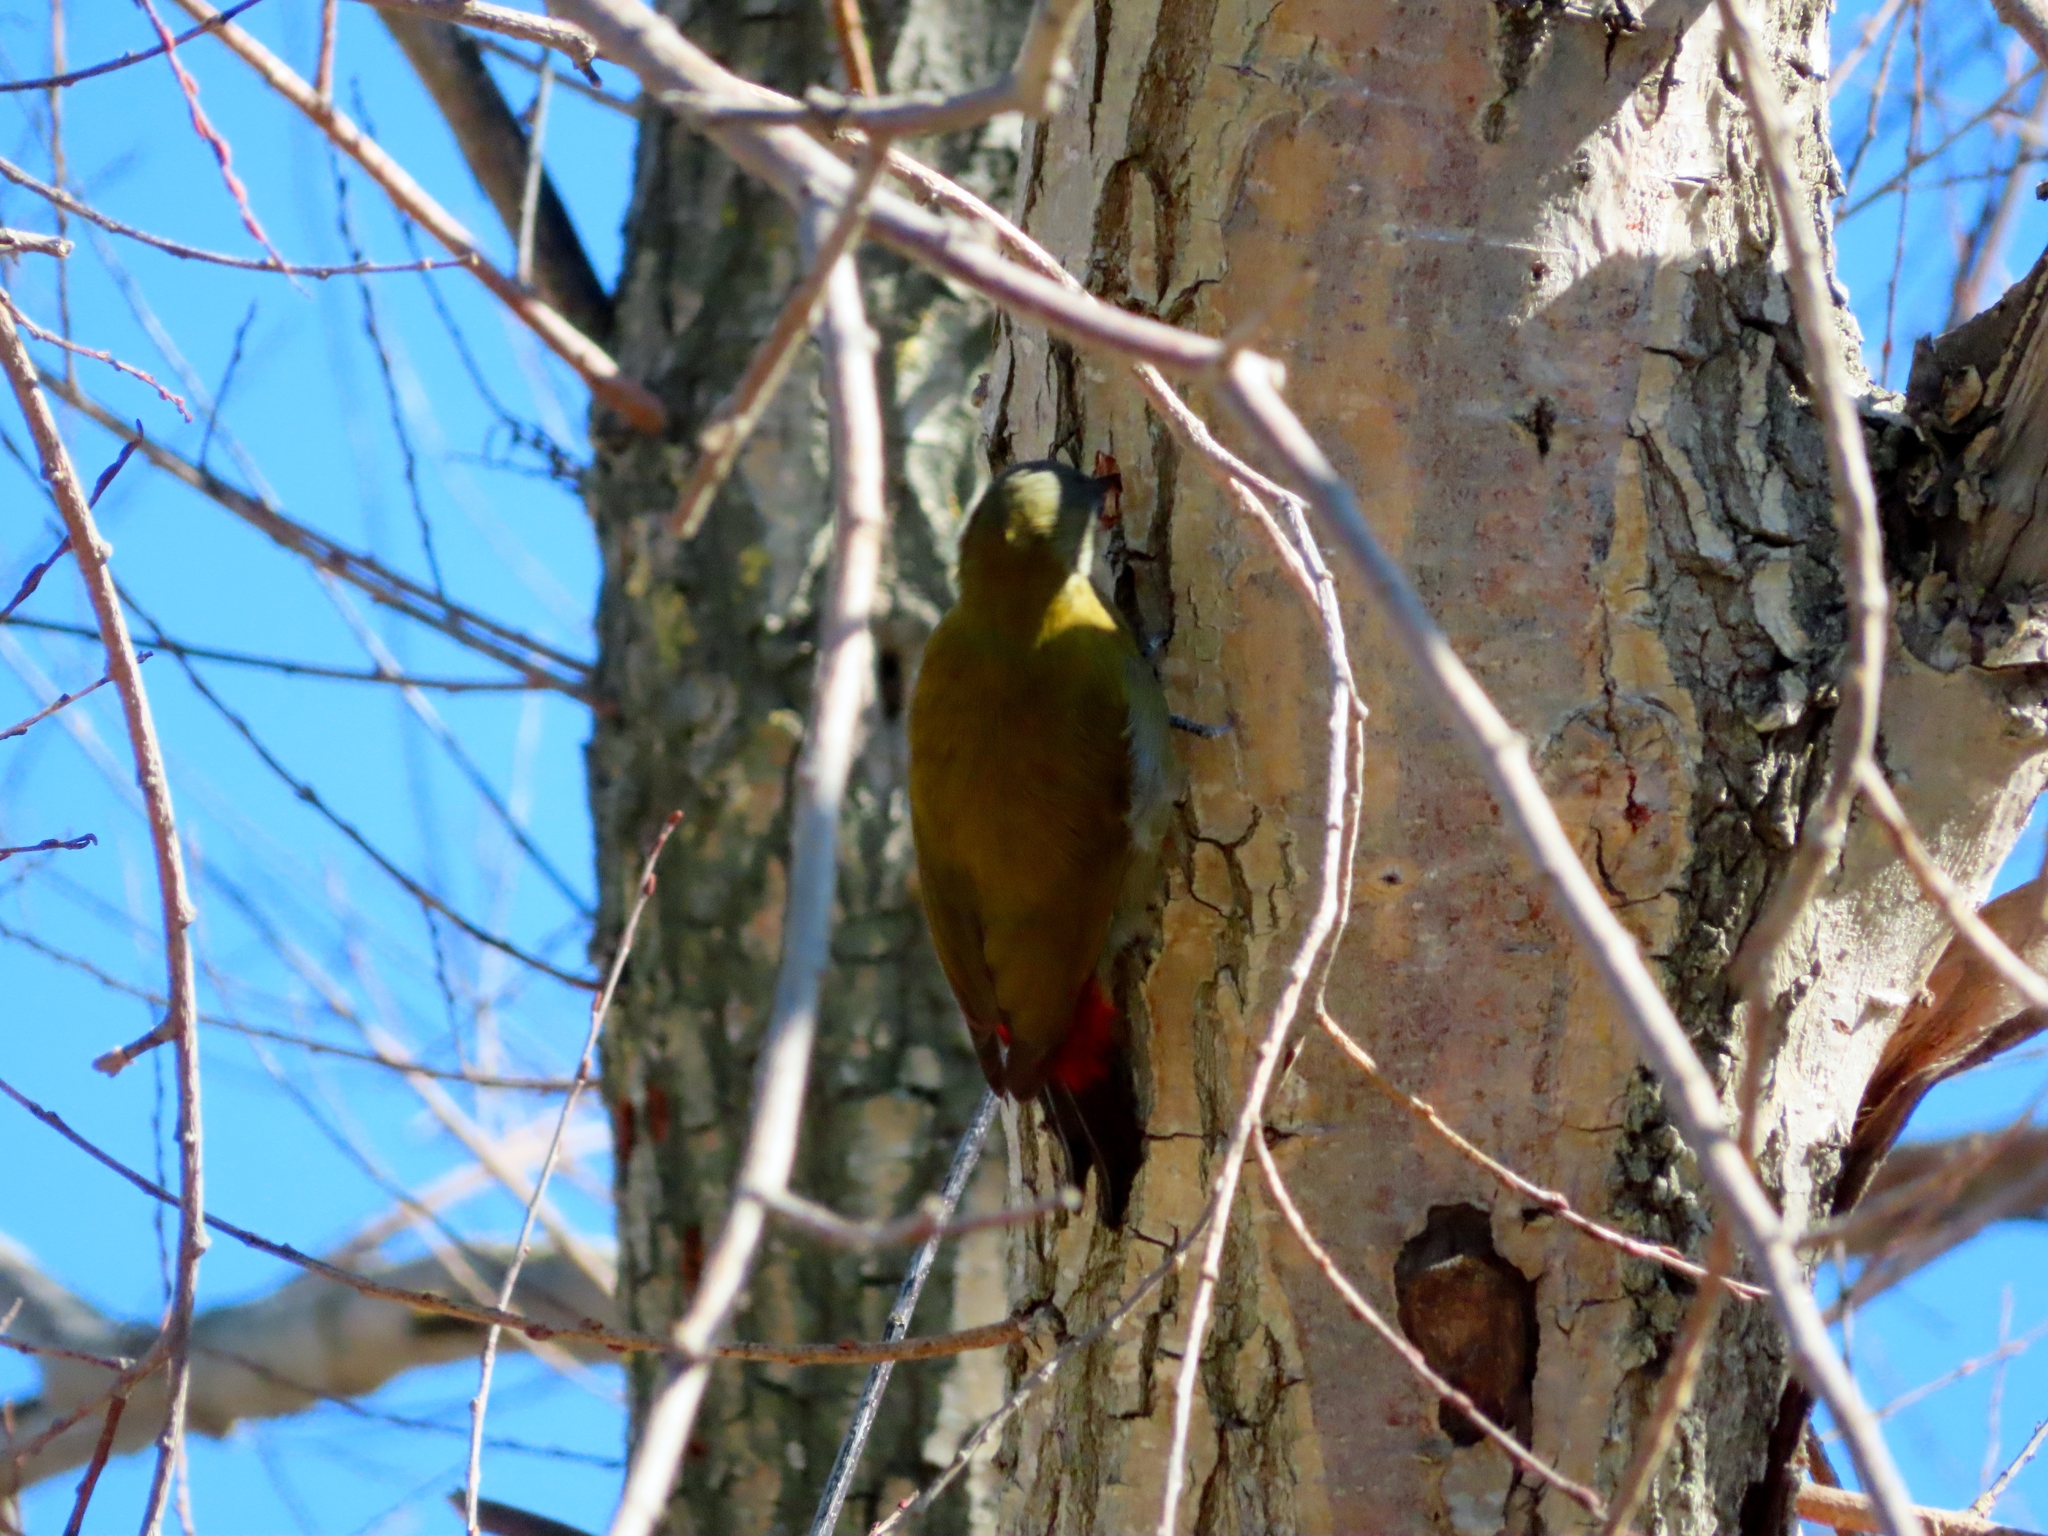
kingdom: Animalia
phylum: Chordata
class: Aves
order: Piciformes
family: Picidae
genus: Dendropicos
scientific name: Dendropicos griseocephalus
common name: Olive woodpecker
